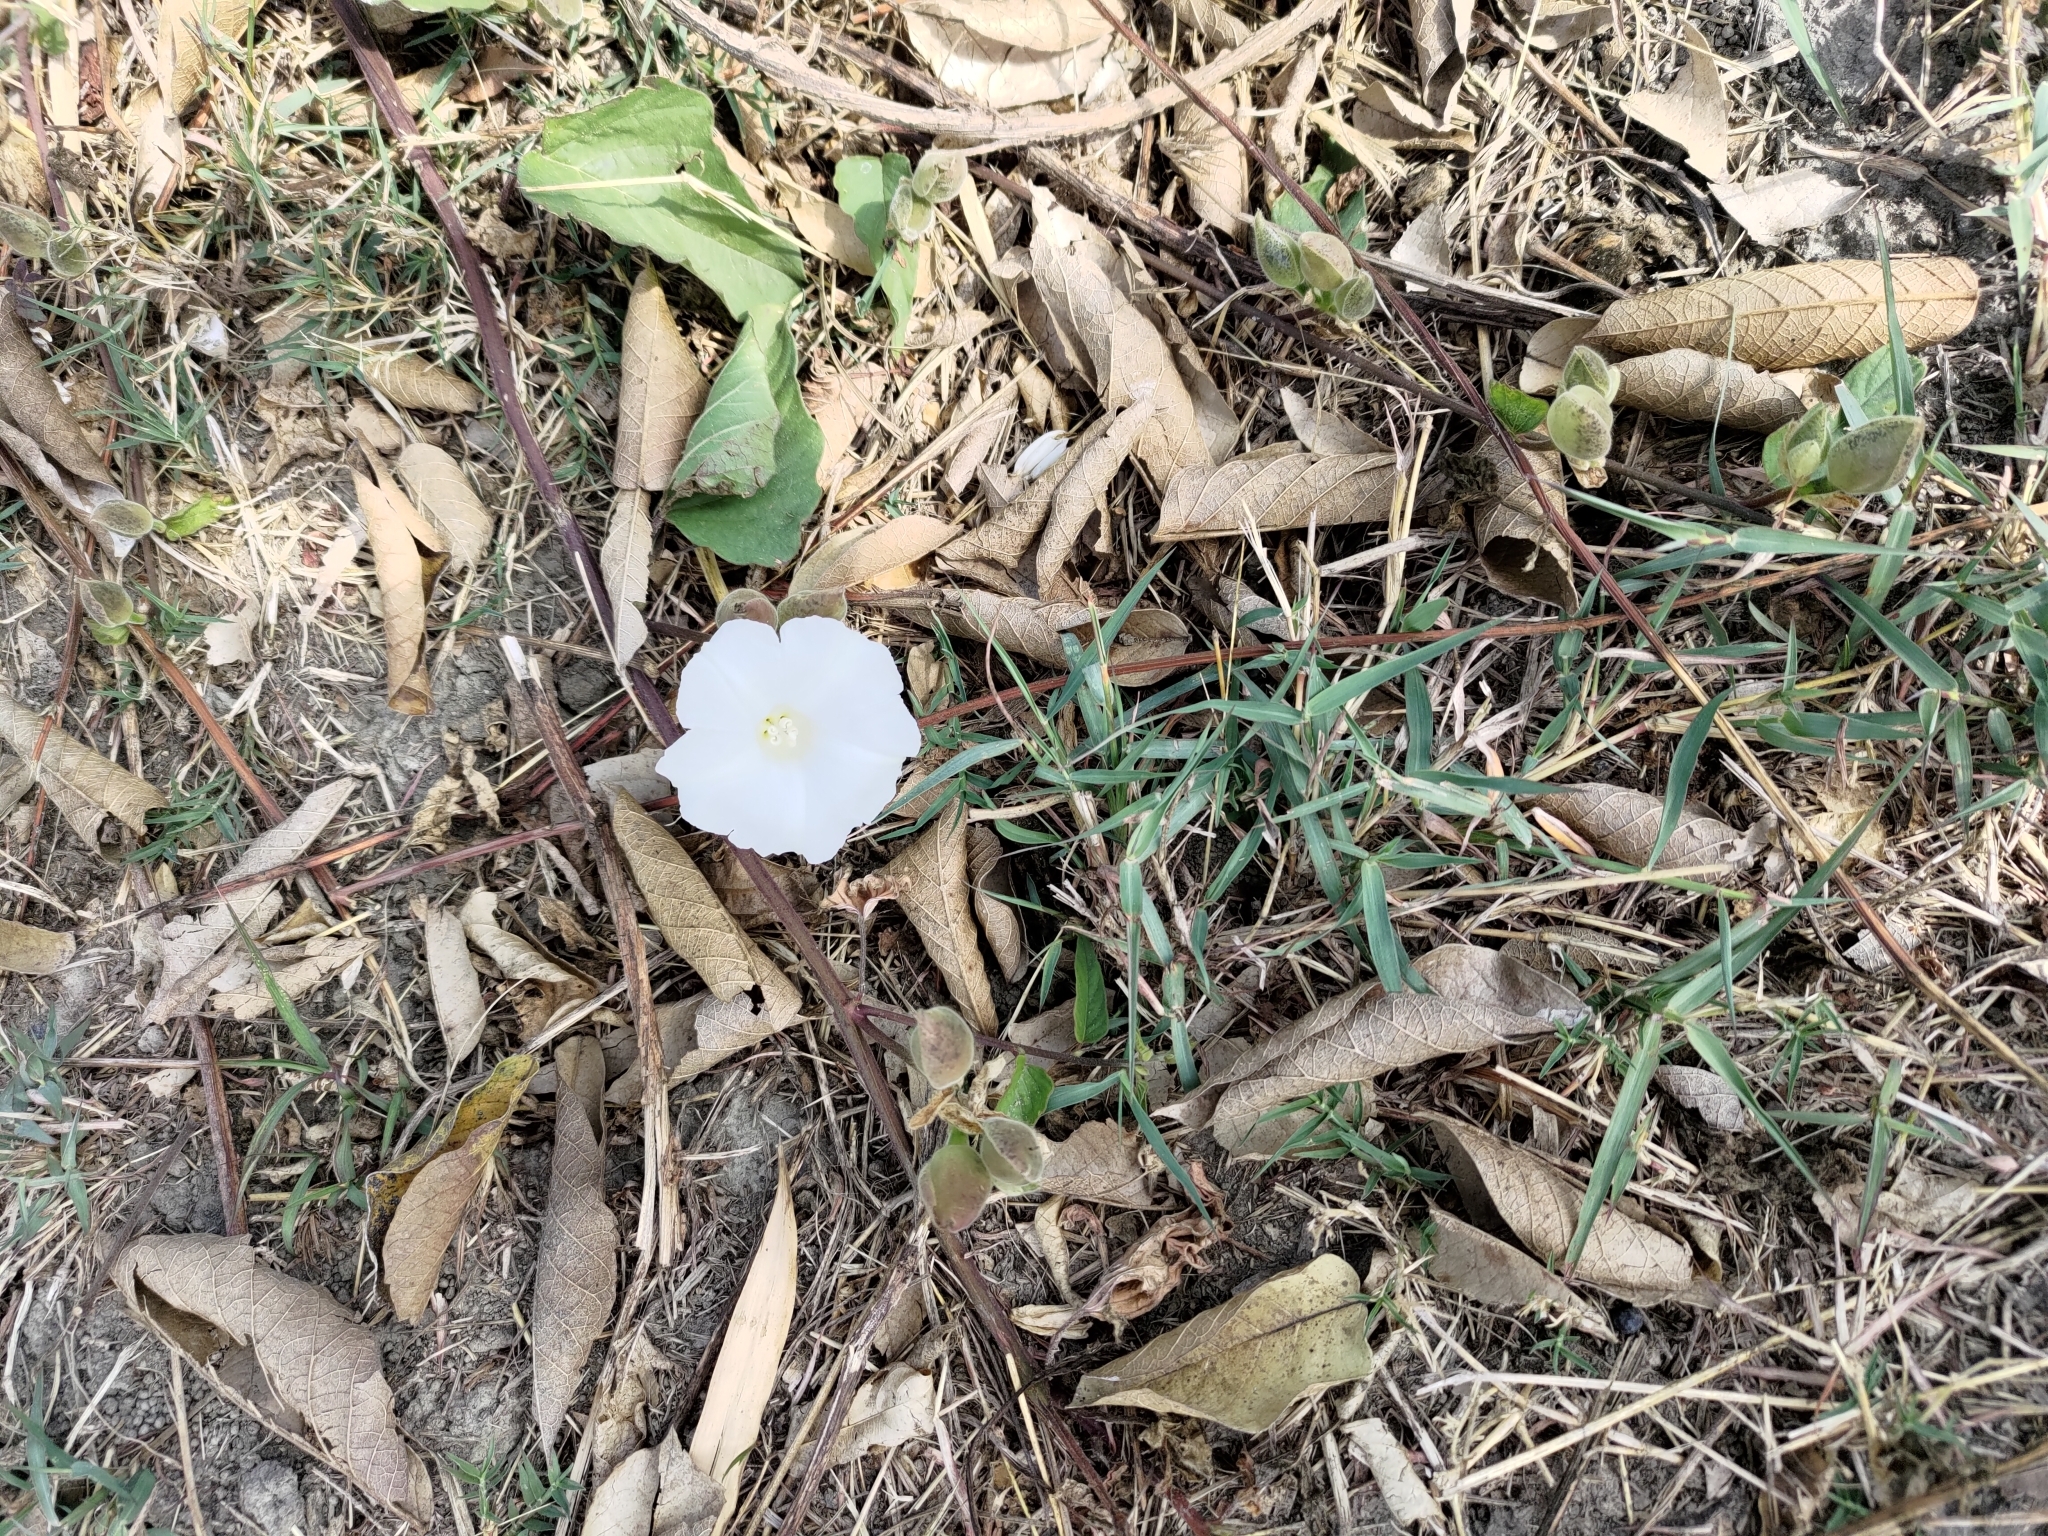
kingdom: Plantae
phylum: Tracheophyta
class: Magnoliopsida
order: Solanales
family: Convolvulaceae
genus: Operculina
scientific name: Operculina turpethum
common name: Transparent wood-rose
